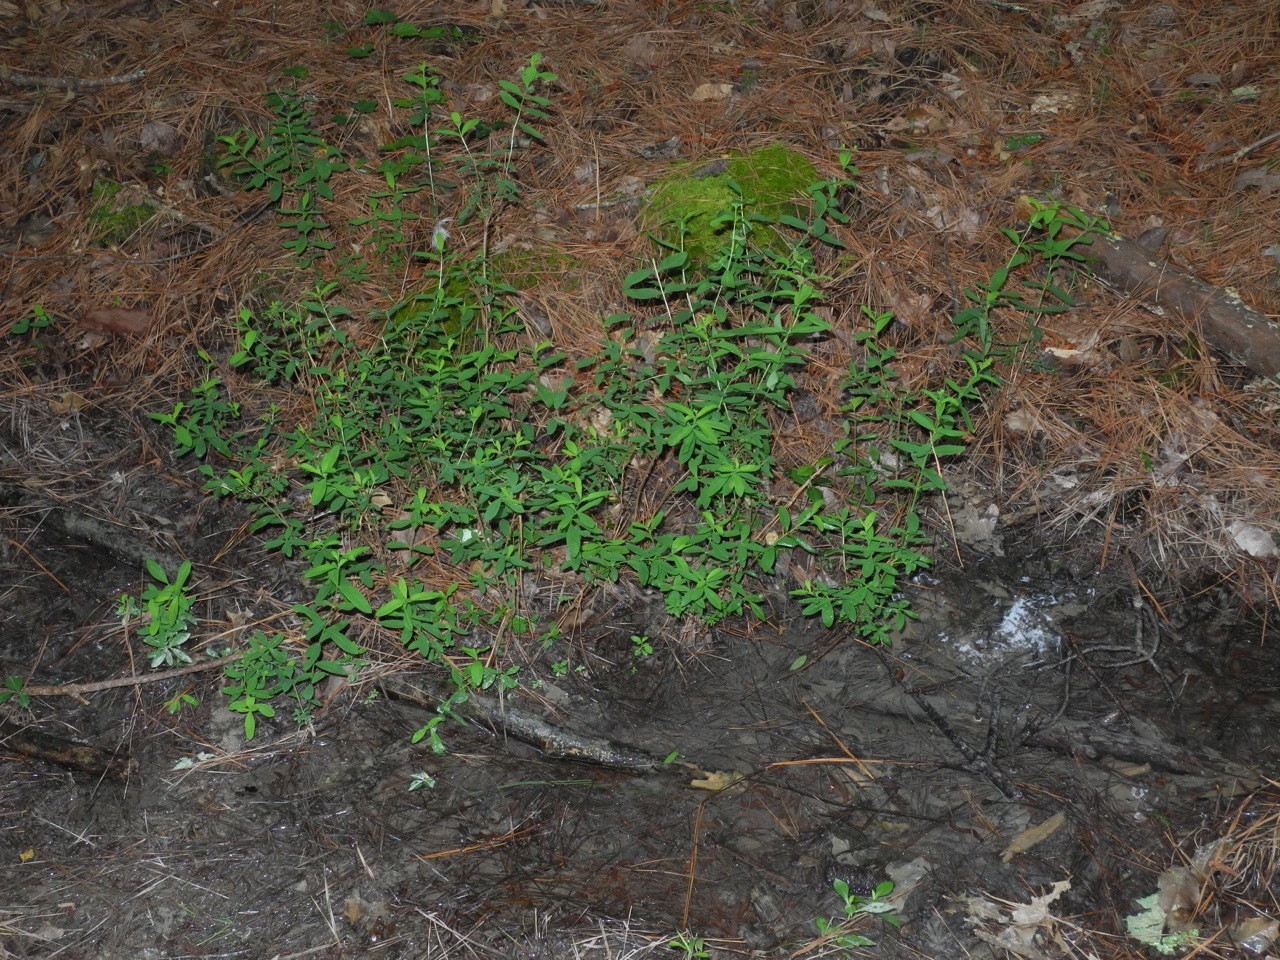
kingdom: Plantae
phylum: Tracheophyta
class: Magnoliopsida
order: Malpighiales
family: Hypericaceae
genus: Hypericum
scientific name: Hypericum nudiflorum
